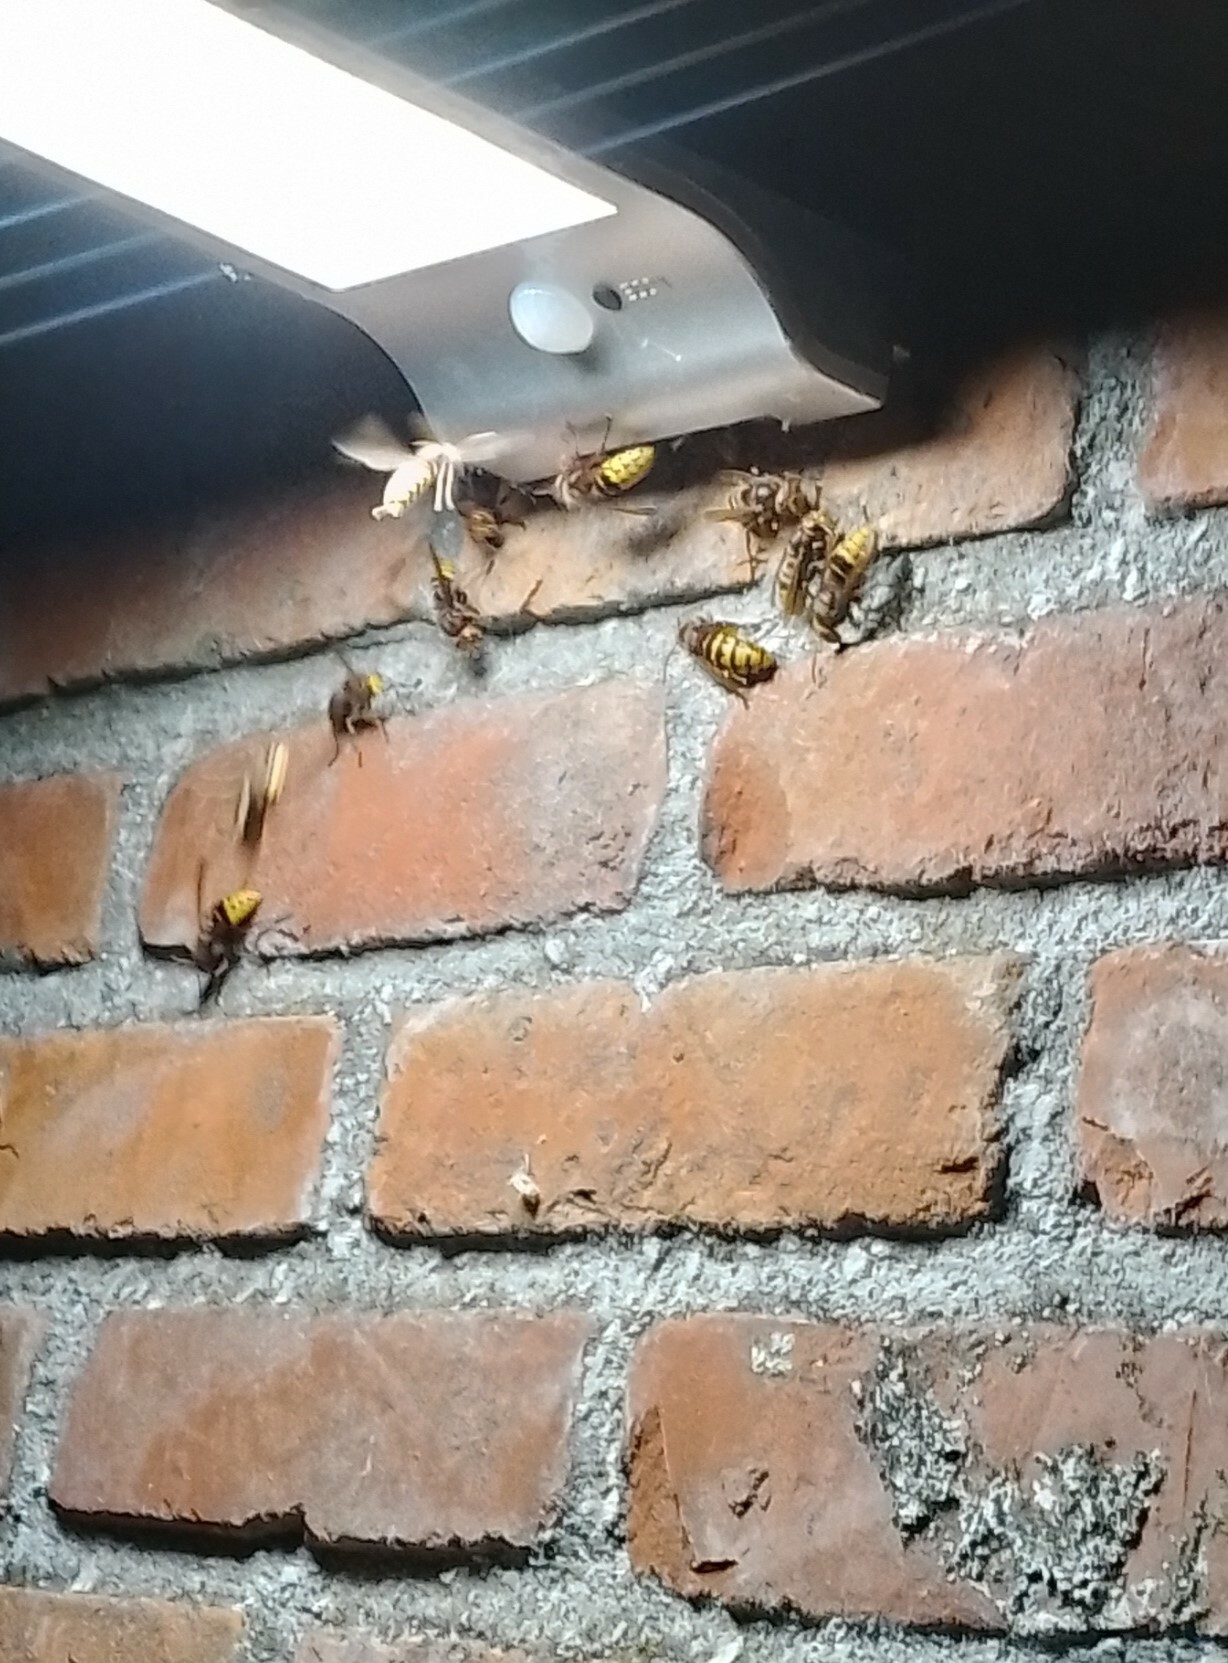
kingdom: Animalia
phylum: Arthropoda
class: Insecta
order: Hymenoptera
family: Vespidae
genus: Vespa
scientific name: Vespa crabro
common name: Hornet
